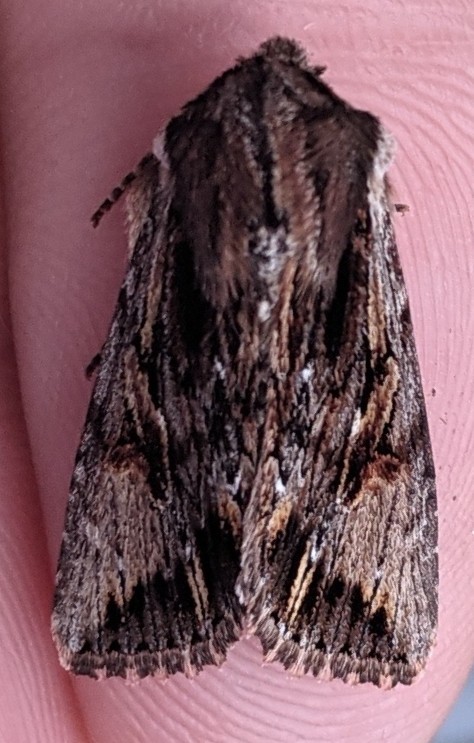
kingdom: Animalia
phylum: Arthropoda
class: Insecta
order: Lepidoptera
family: Noctuidae
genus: Achatia
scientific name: Achatia evicta
